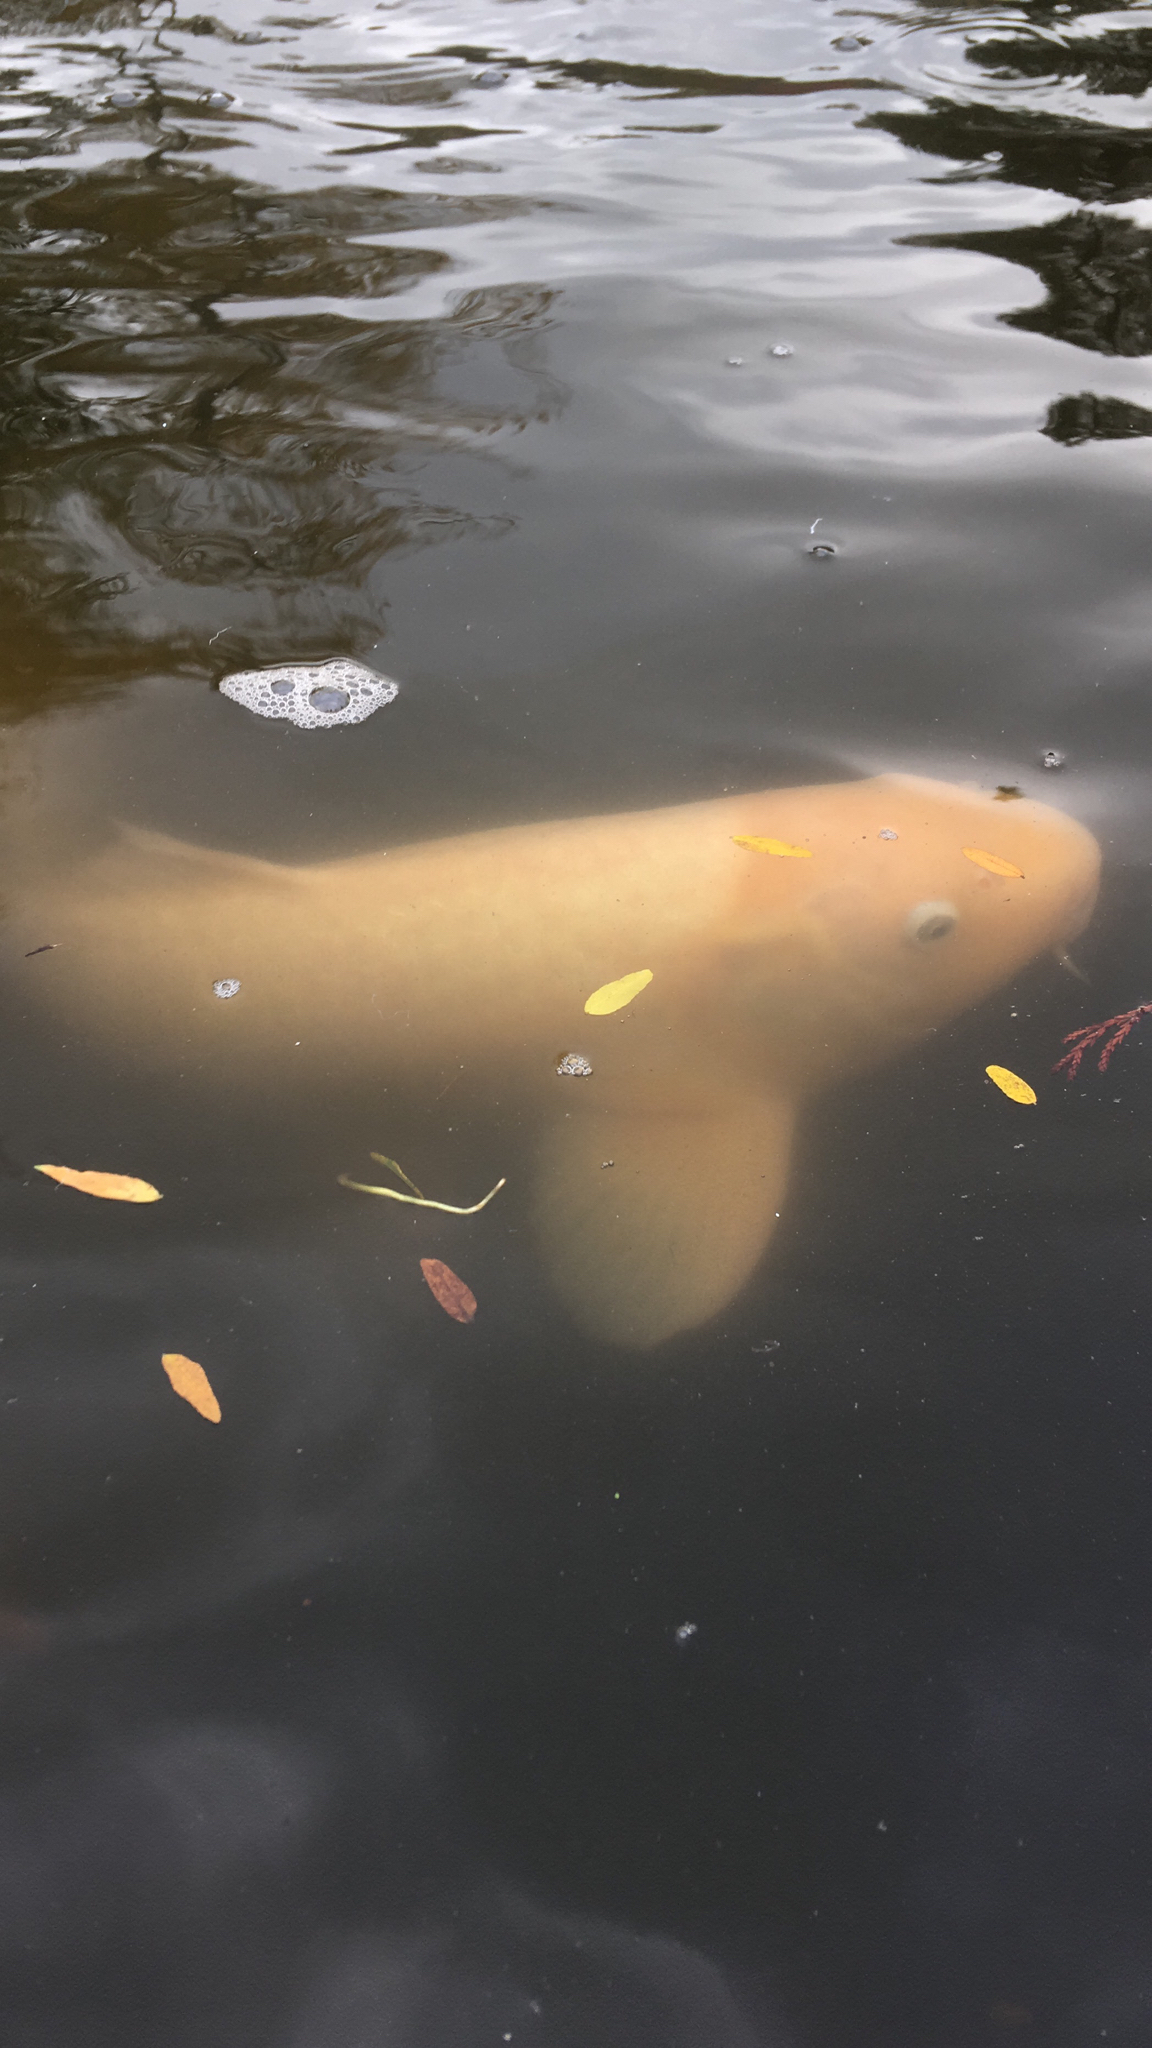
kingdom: Animalia
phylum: Chordata
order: Cypriniformes
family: Cyprinidae
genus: Cyprinus
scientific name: Cyprinus rubrofuscus
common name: Koi
